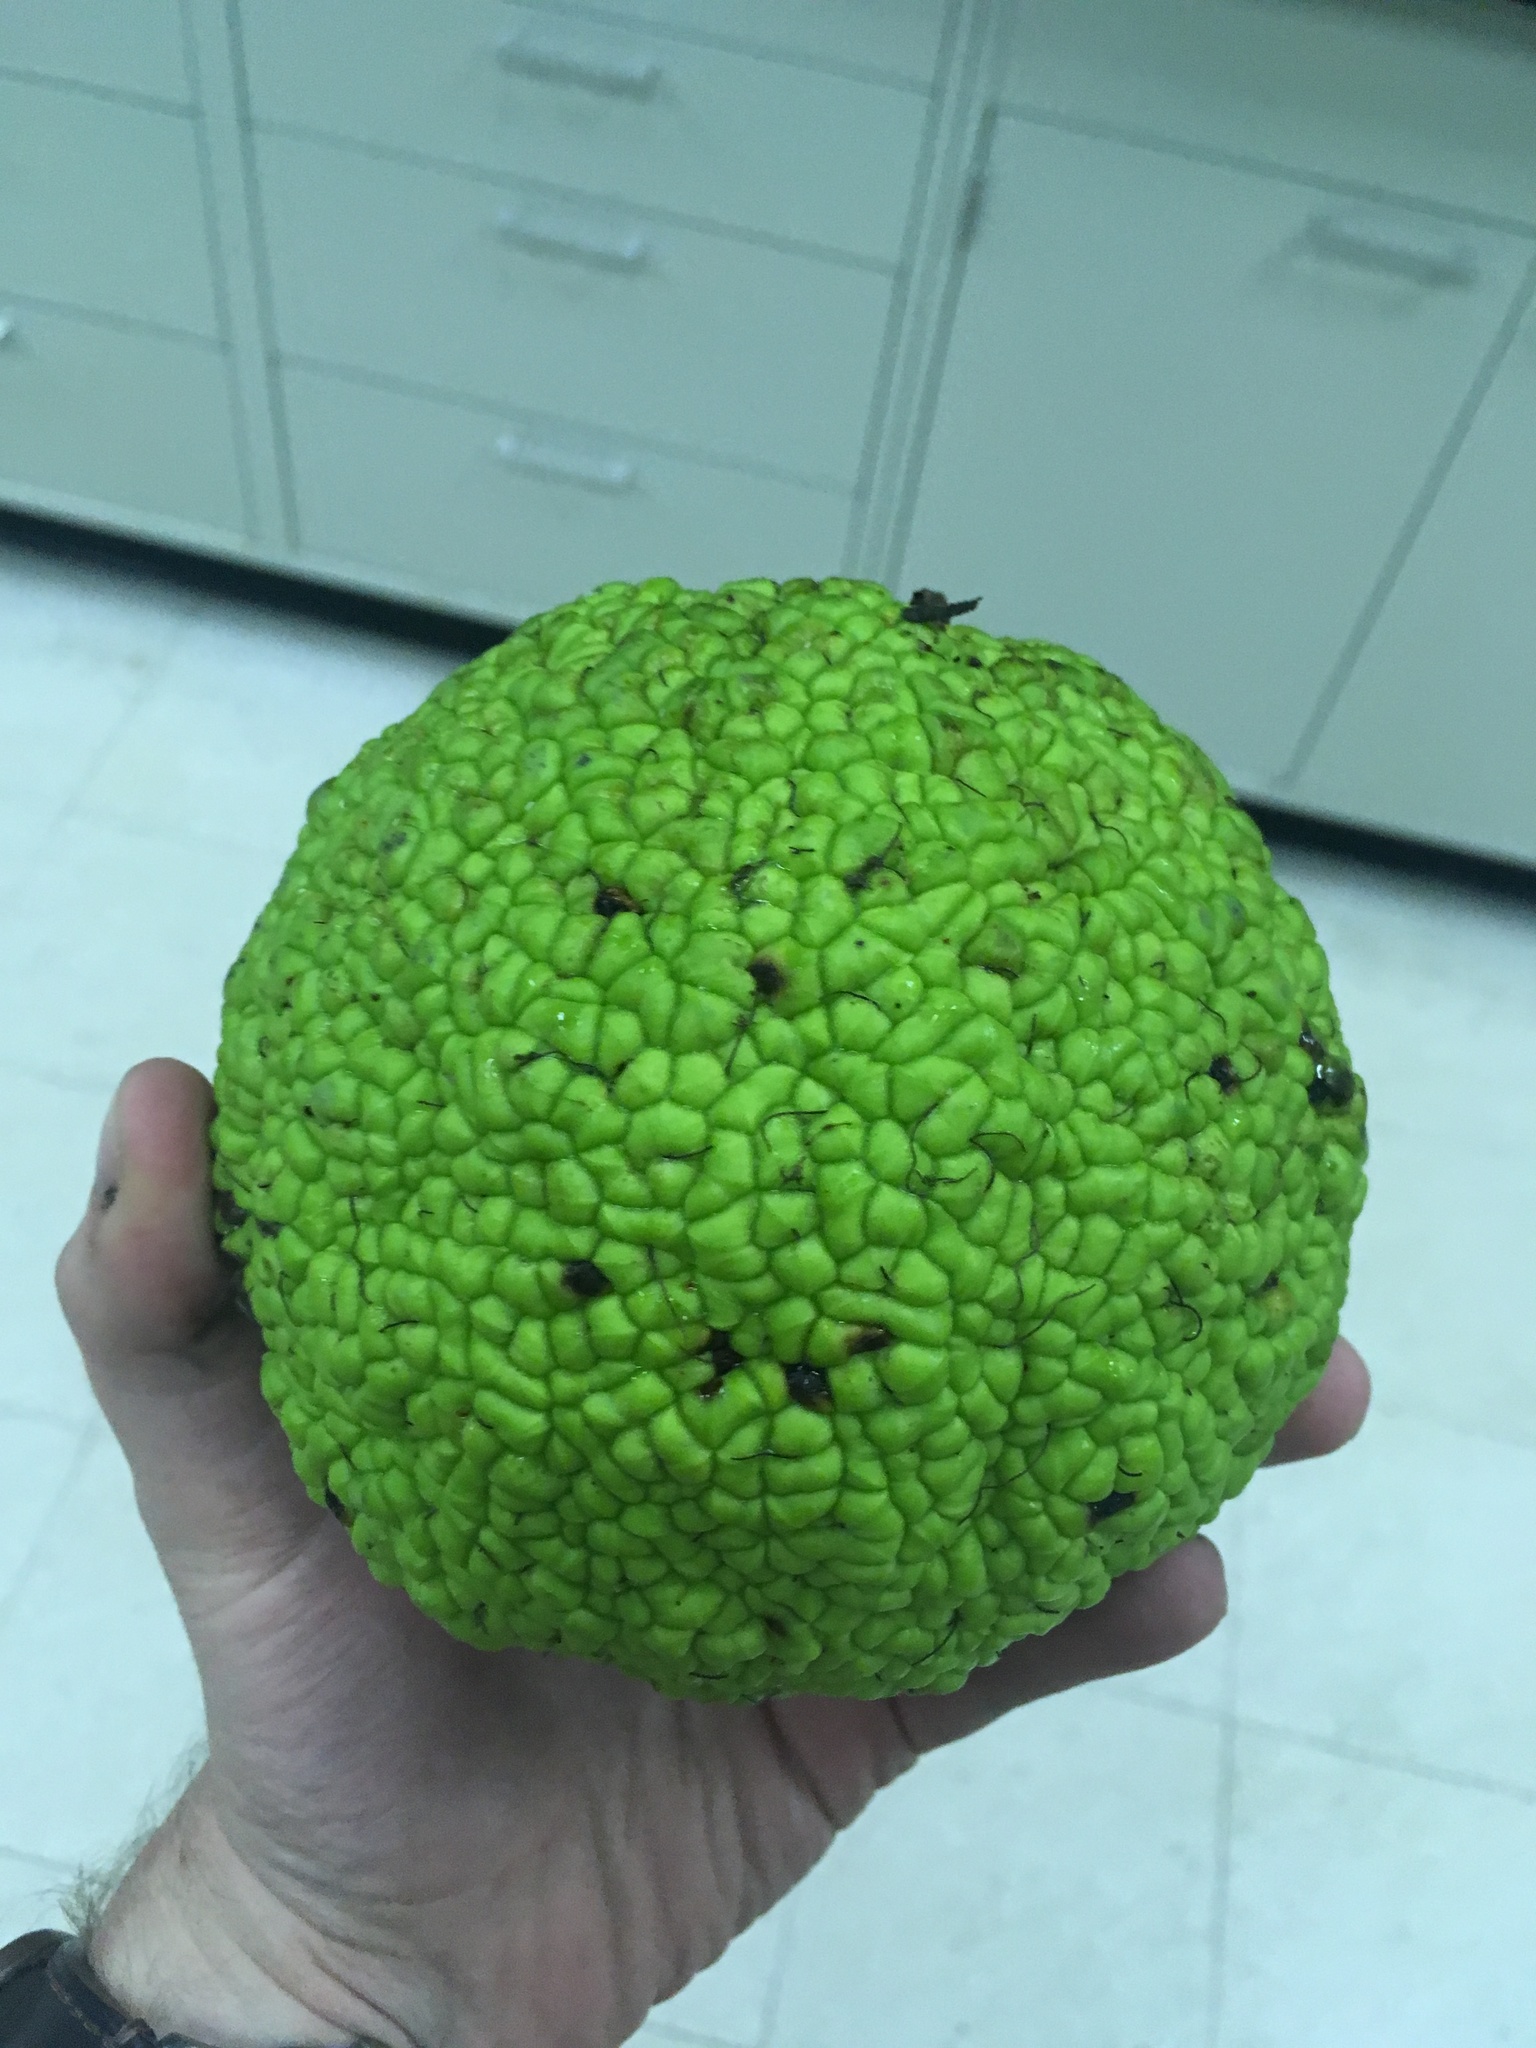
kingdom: Plantae
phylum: Tracheophyta
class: Magnoliopsida
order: Rosales
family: Moraceae
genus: Maclura
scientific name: Maclura pomifera
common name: Osage-orange
